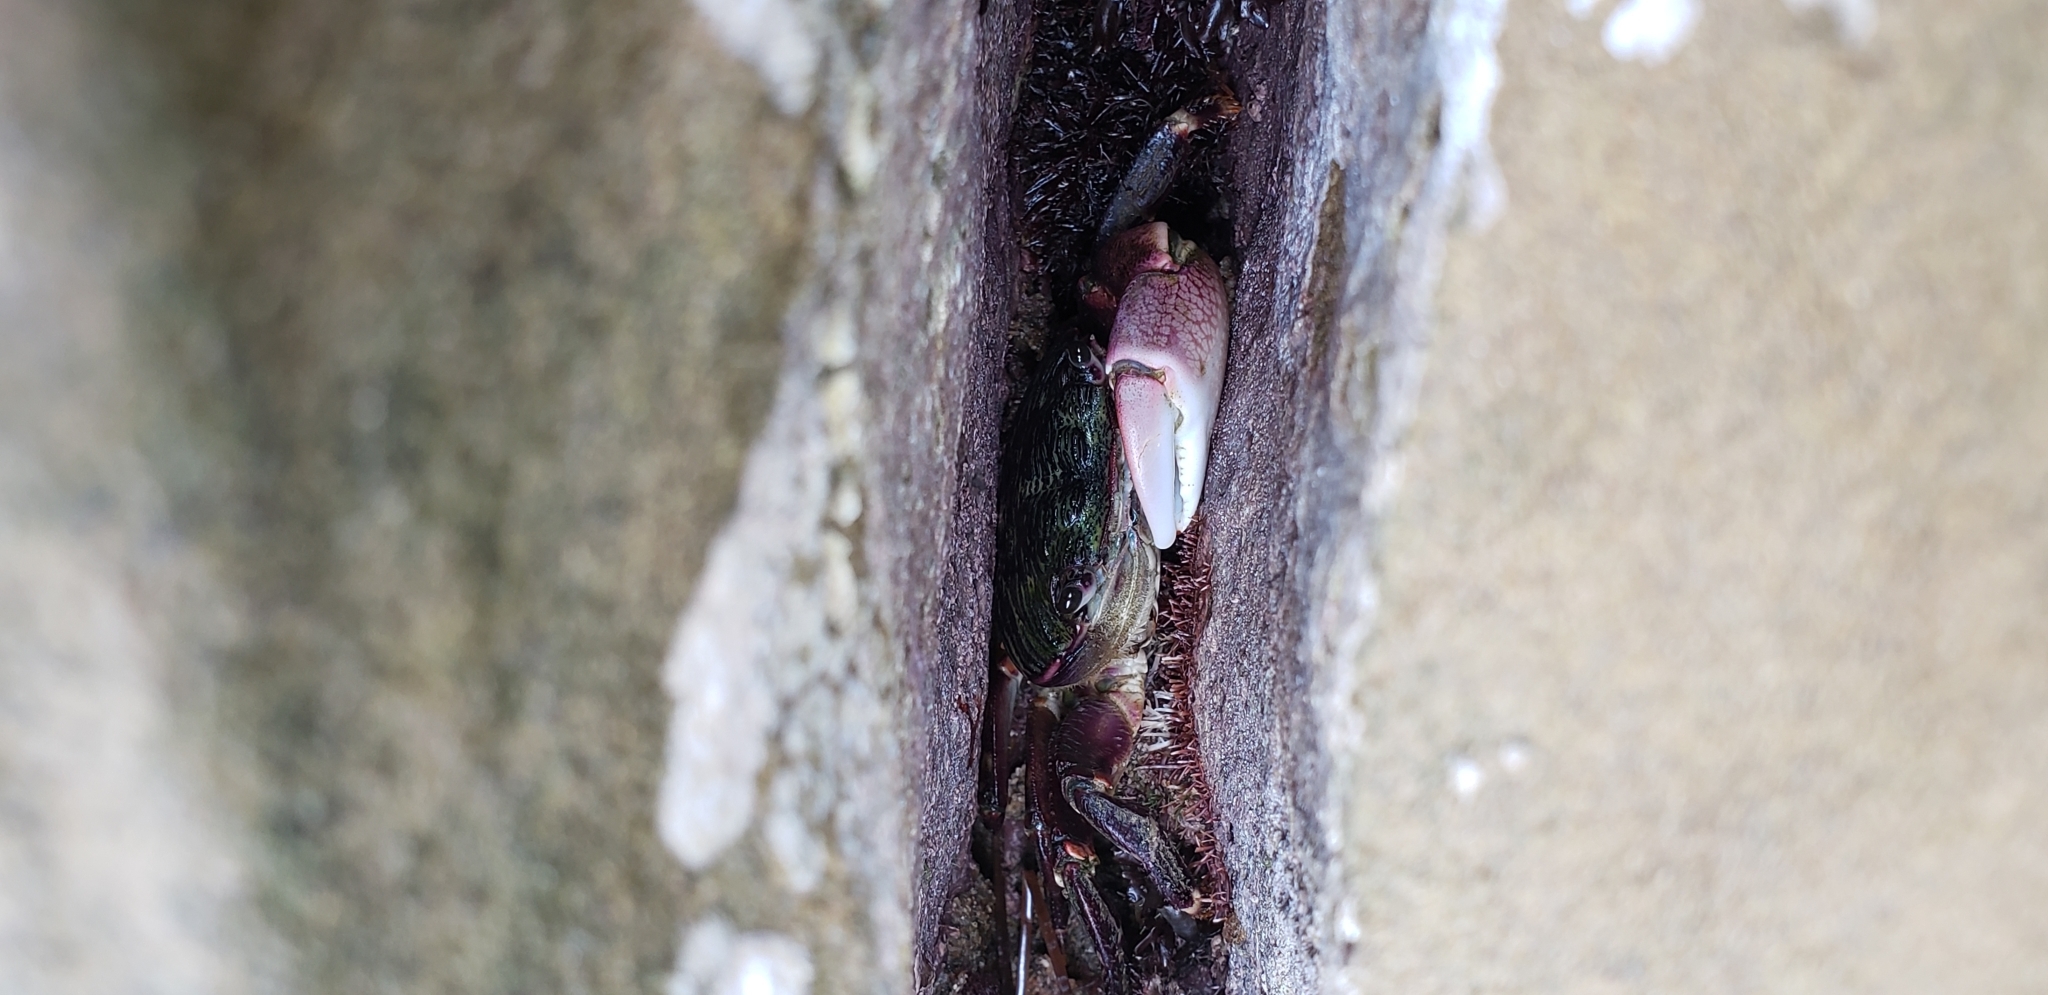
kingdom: Animalia
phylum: Arthropoda
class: Malacostraca
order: Decapoda
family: Grapsidae
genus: Pachygrapsus
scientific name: Pachygrapsus crassipes
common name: Striped shore crab
